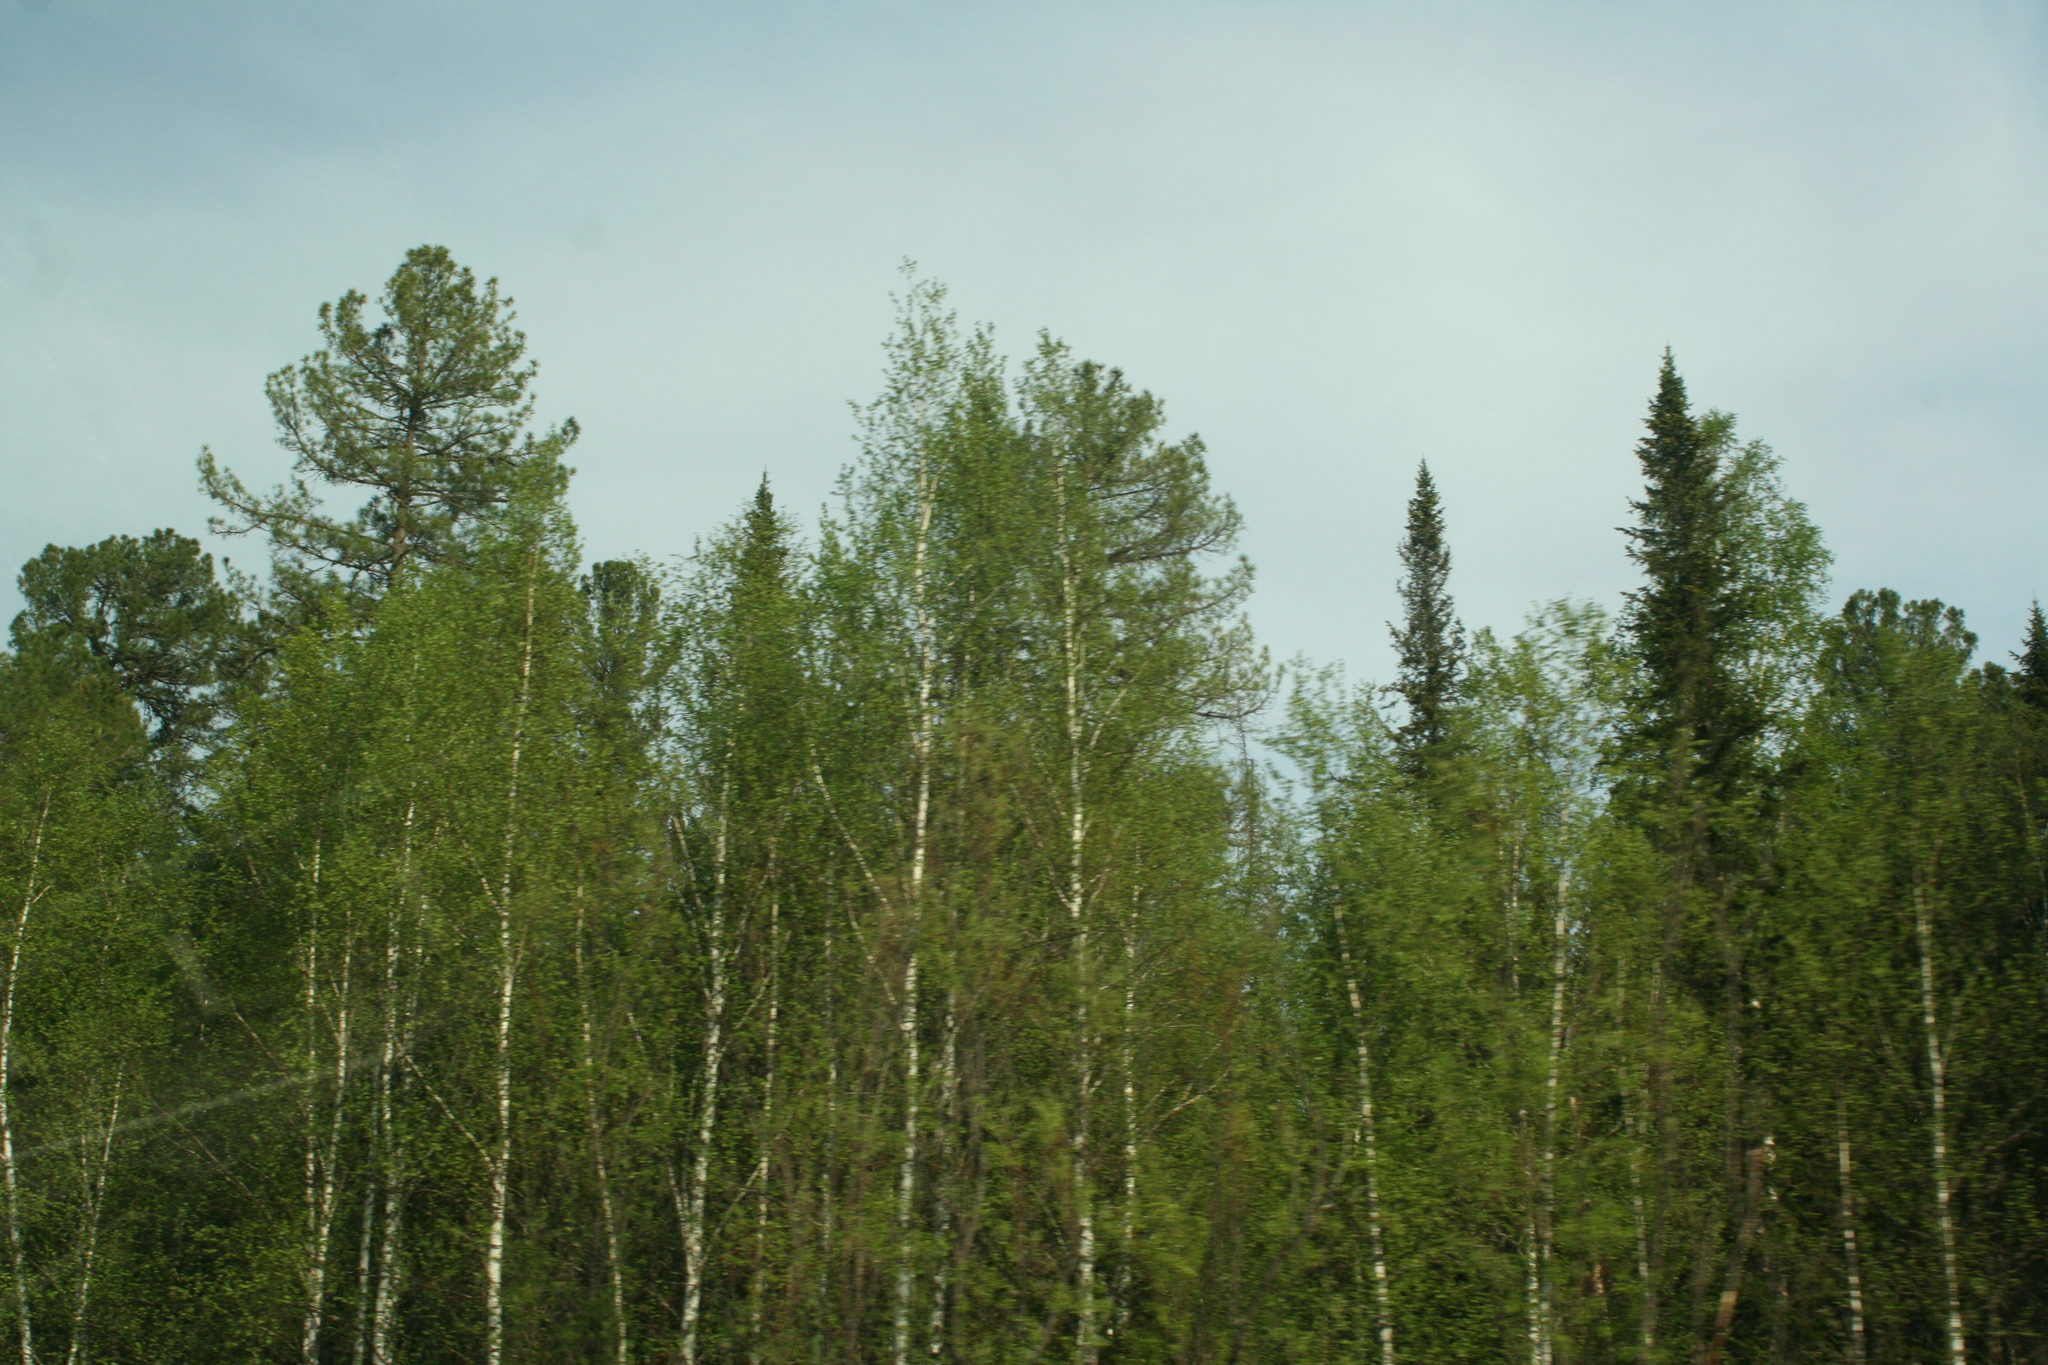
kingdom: Plantae
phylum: Tracheophyta
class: Pinopsida
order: Pinales
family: Pinaceae
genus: Pinus
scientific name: Pinus sibirica
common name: Siberian pine
